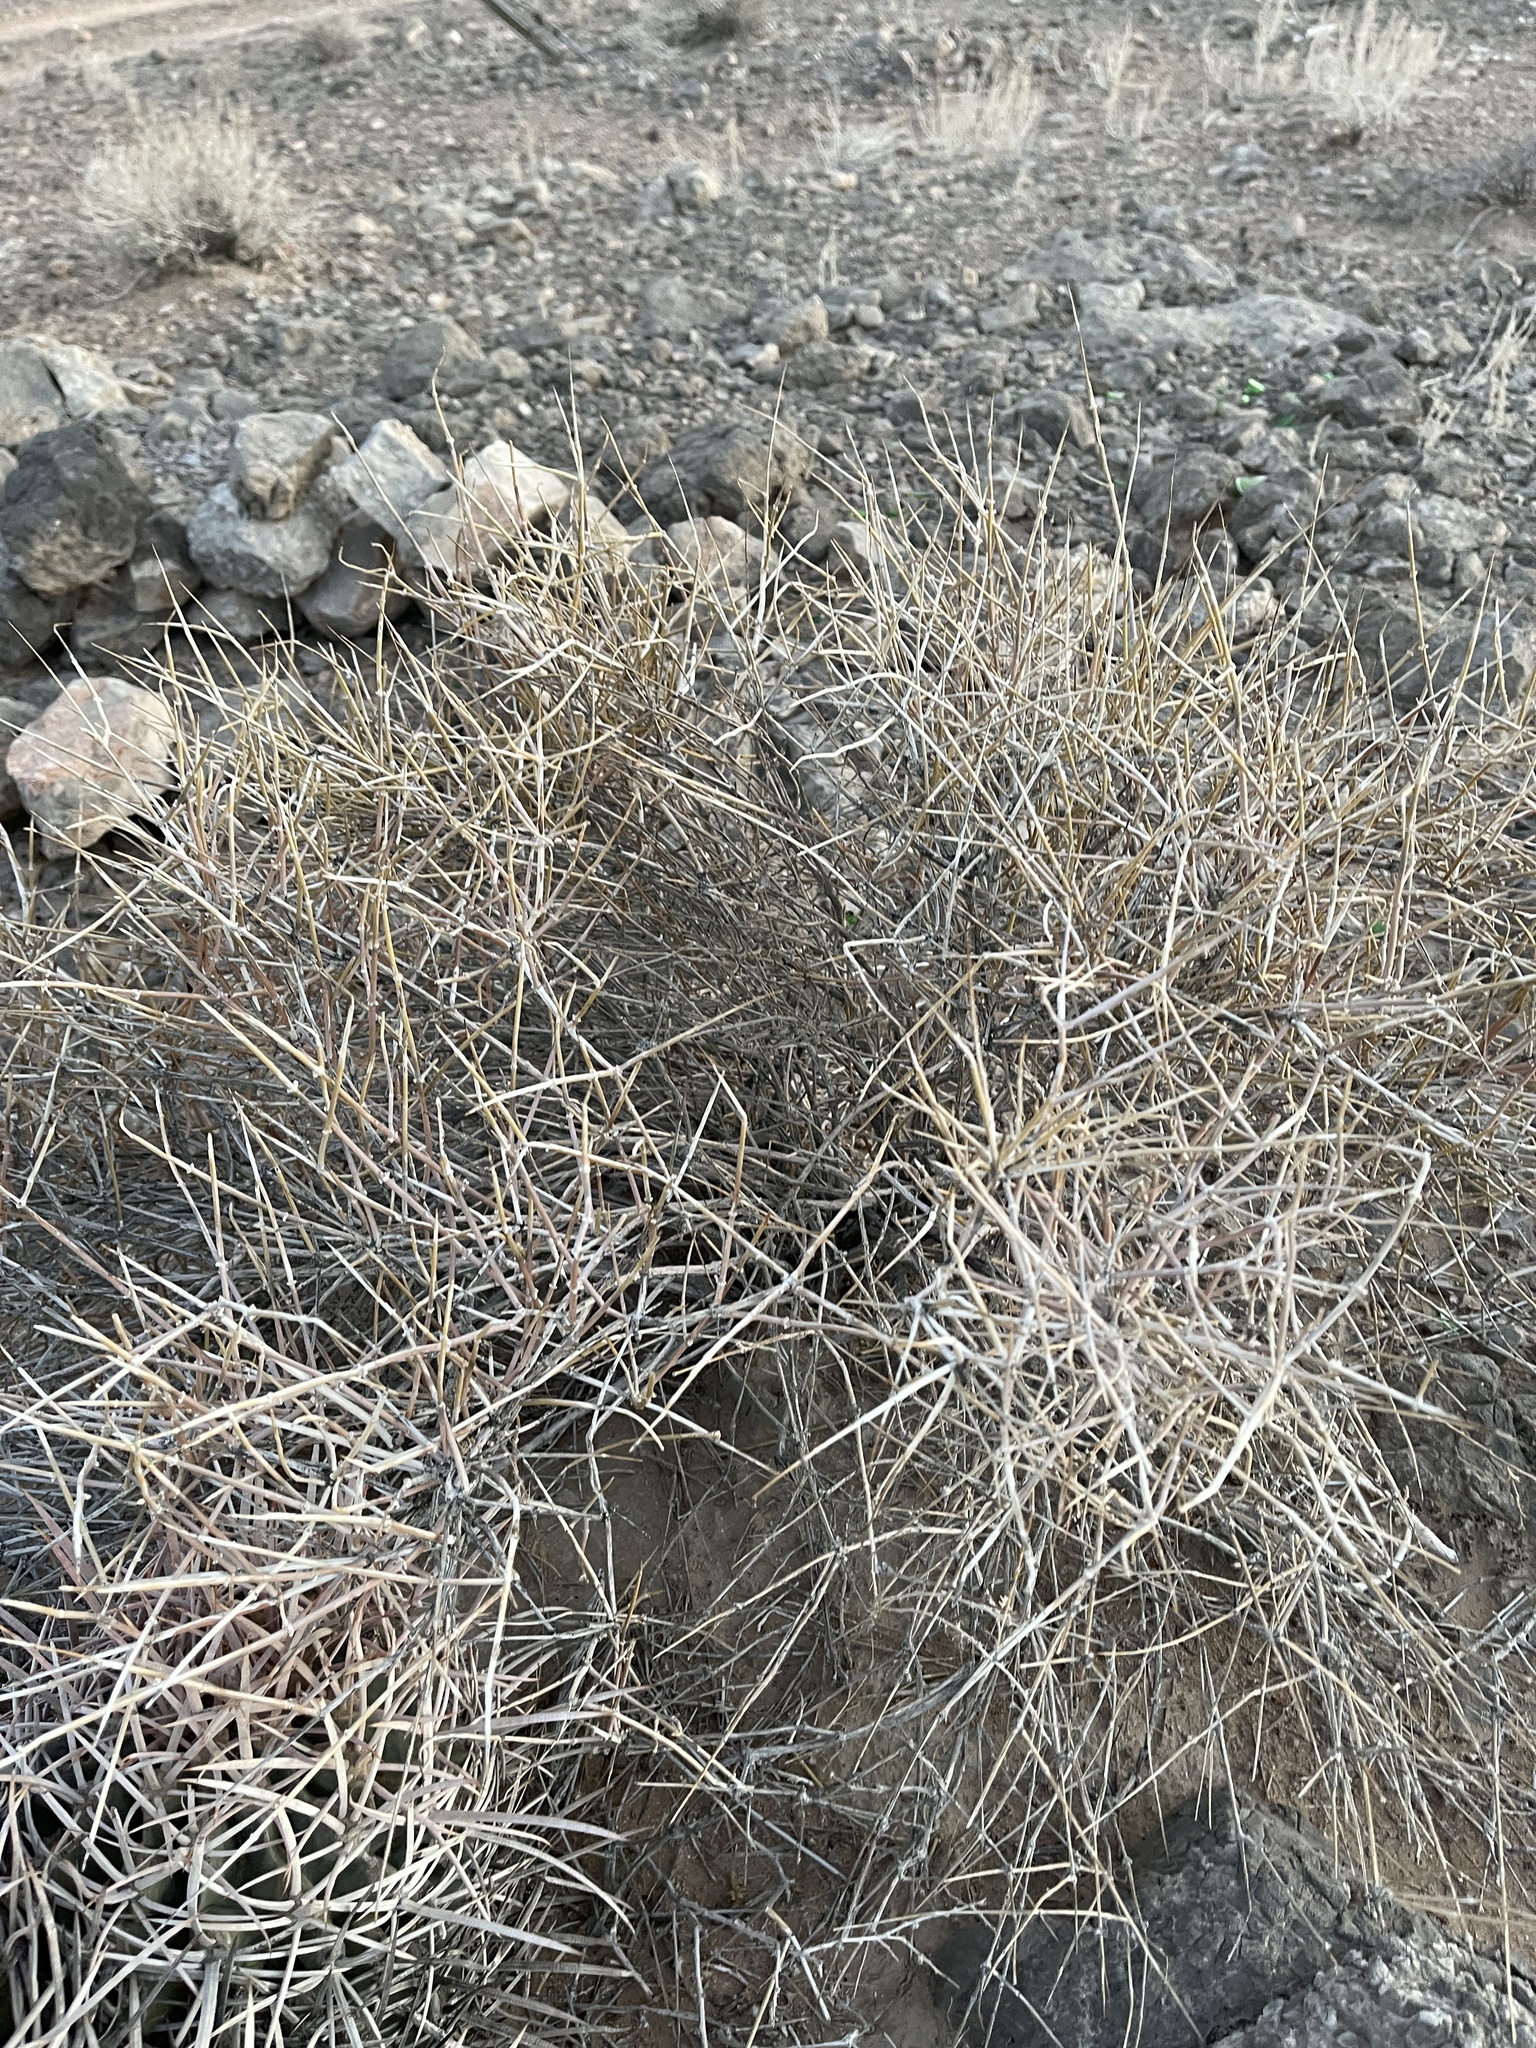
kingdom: Plantae
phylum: Tracheophyta
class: Gnetopsida
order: Ephedrales
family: Ephedraceae
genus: Ephedra
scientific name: Ephedra nevadensis
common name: Gray ephedra
